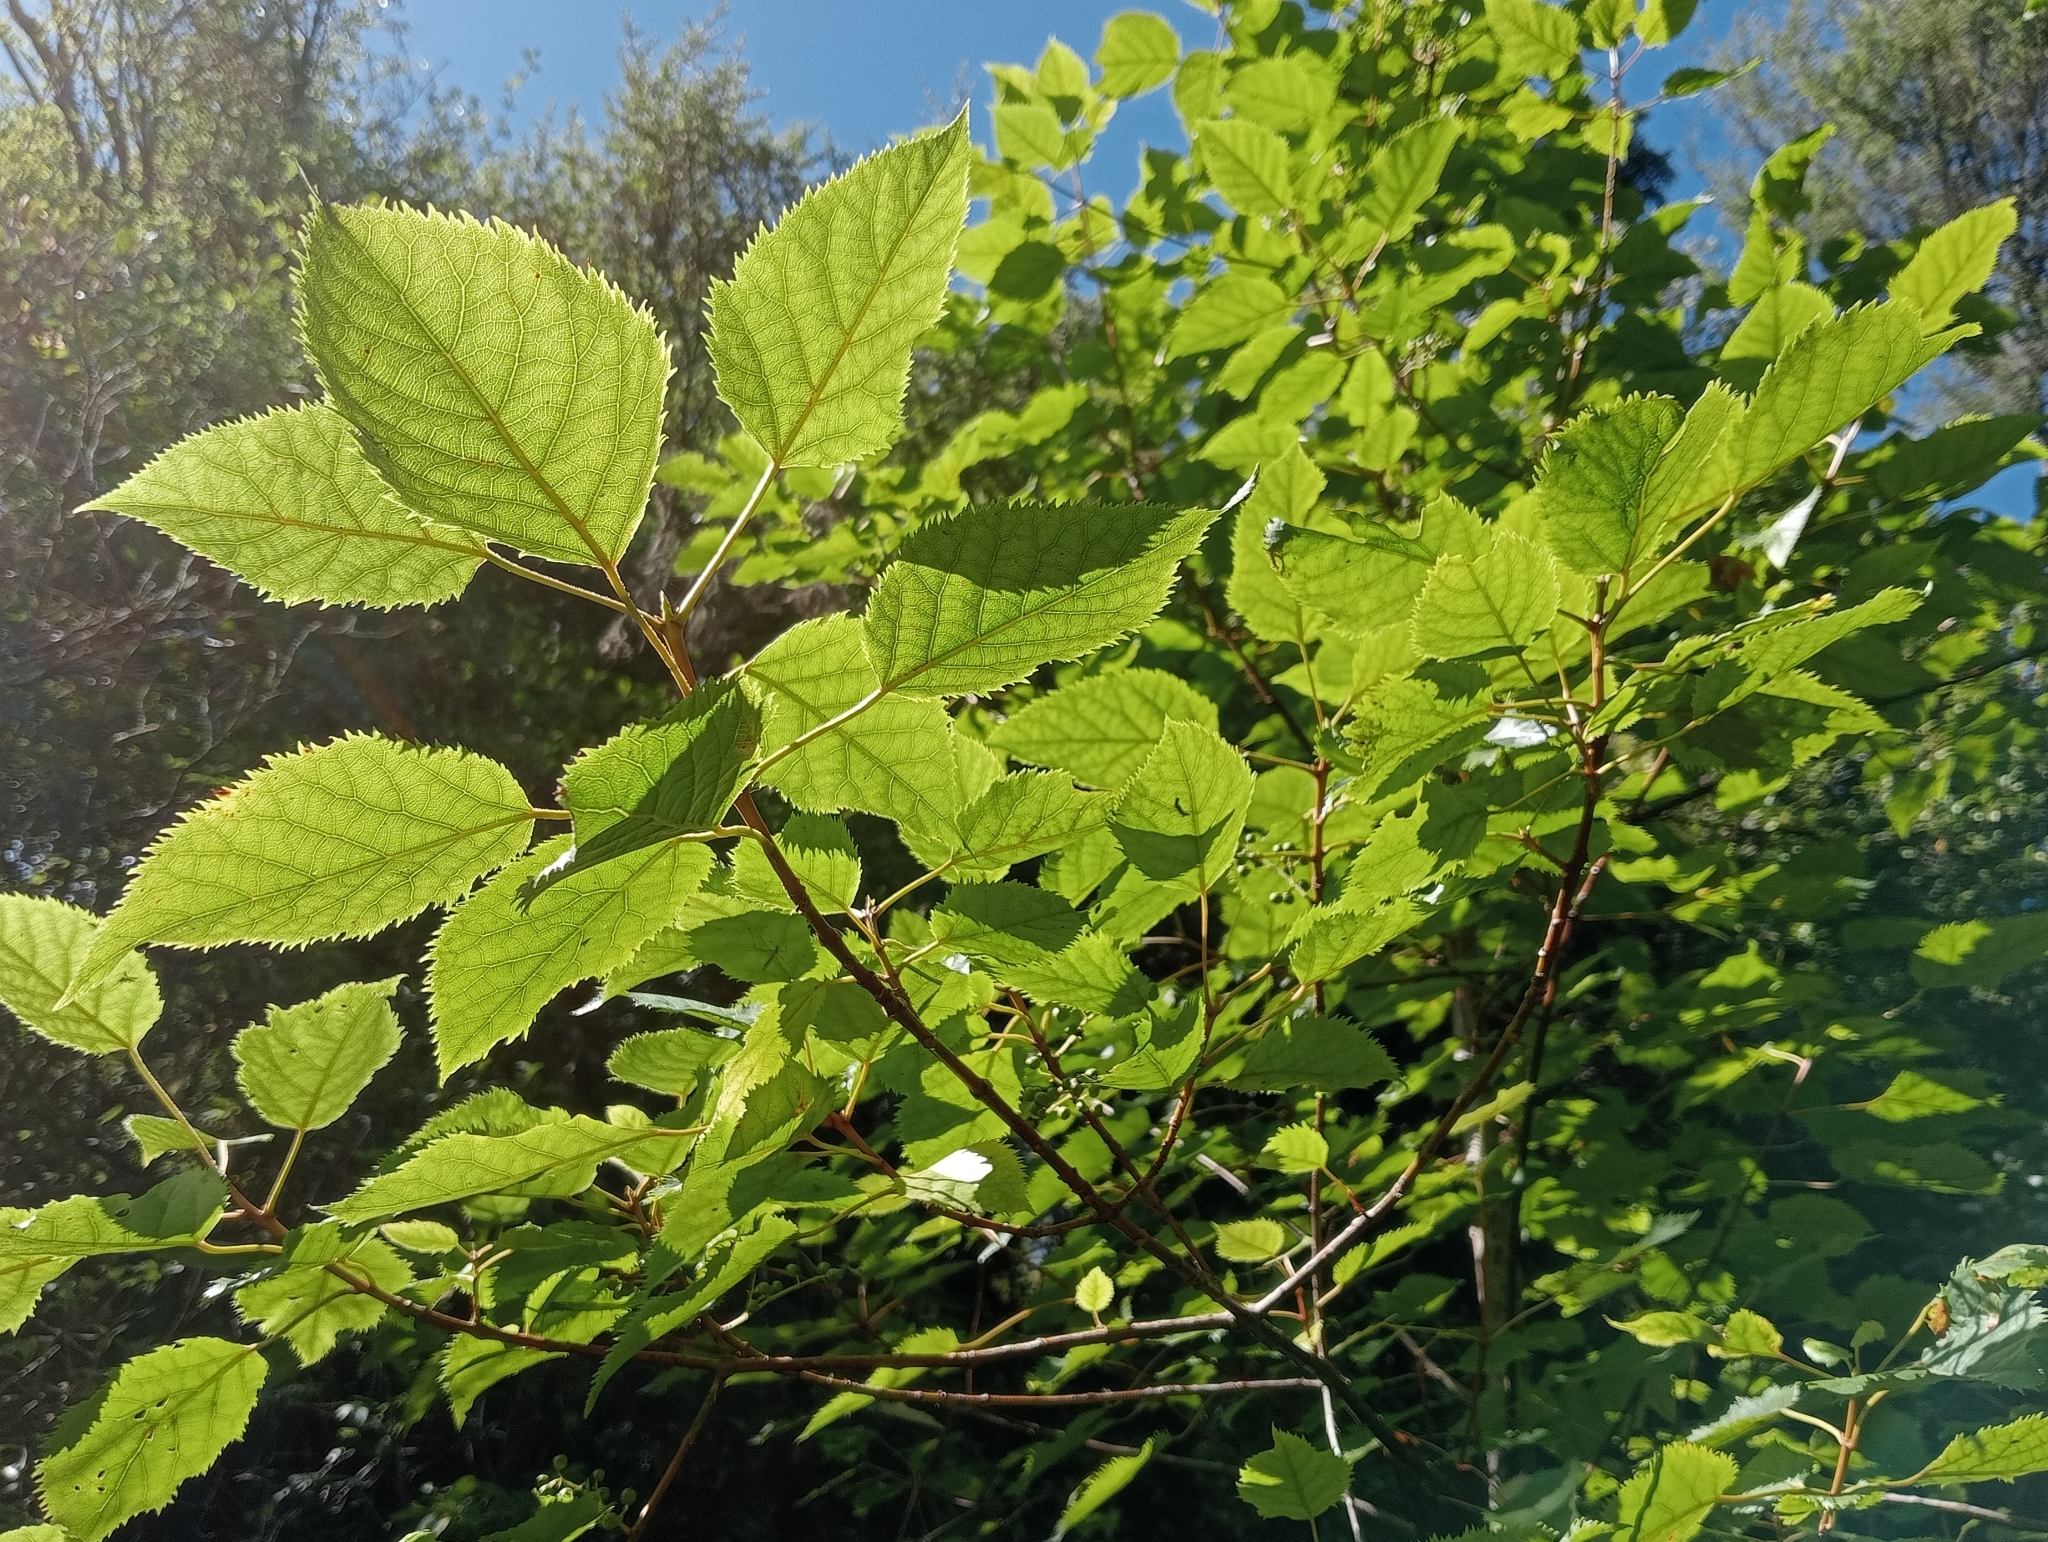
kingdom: Plantae
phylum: Tracheophyta
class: Magnoliopsida
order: Oxalidales
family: Elaeocarpaceae
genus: Aristotelia
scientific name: Aristotelia serrata
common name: New zealand wineberry
